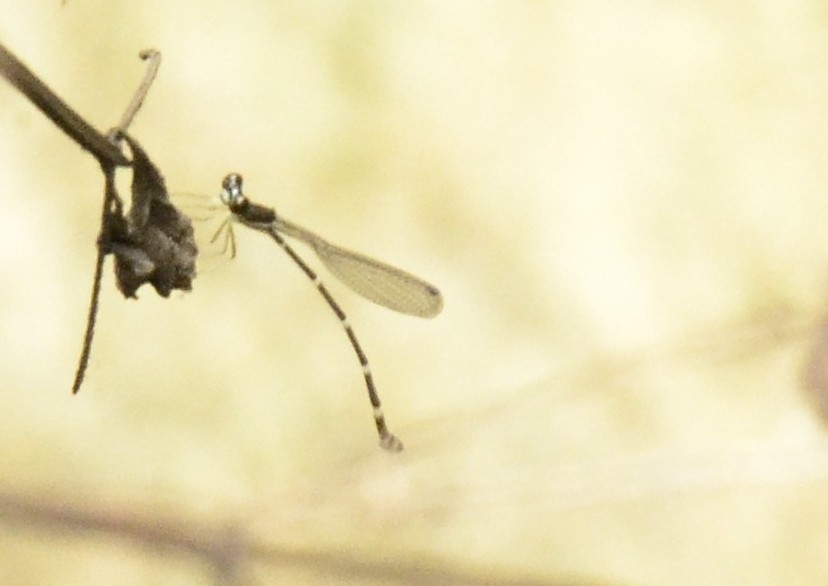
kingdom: Animalia
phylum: Arthropoda
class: Insecta
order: Odonata
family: Platystictidae
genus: Protosticta
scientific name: Protosticta gravelyi
